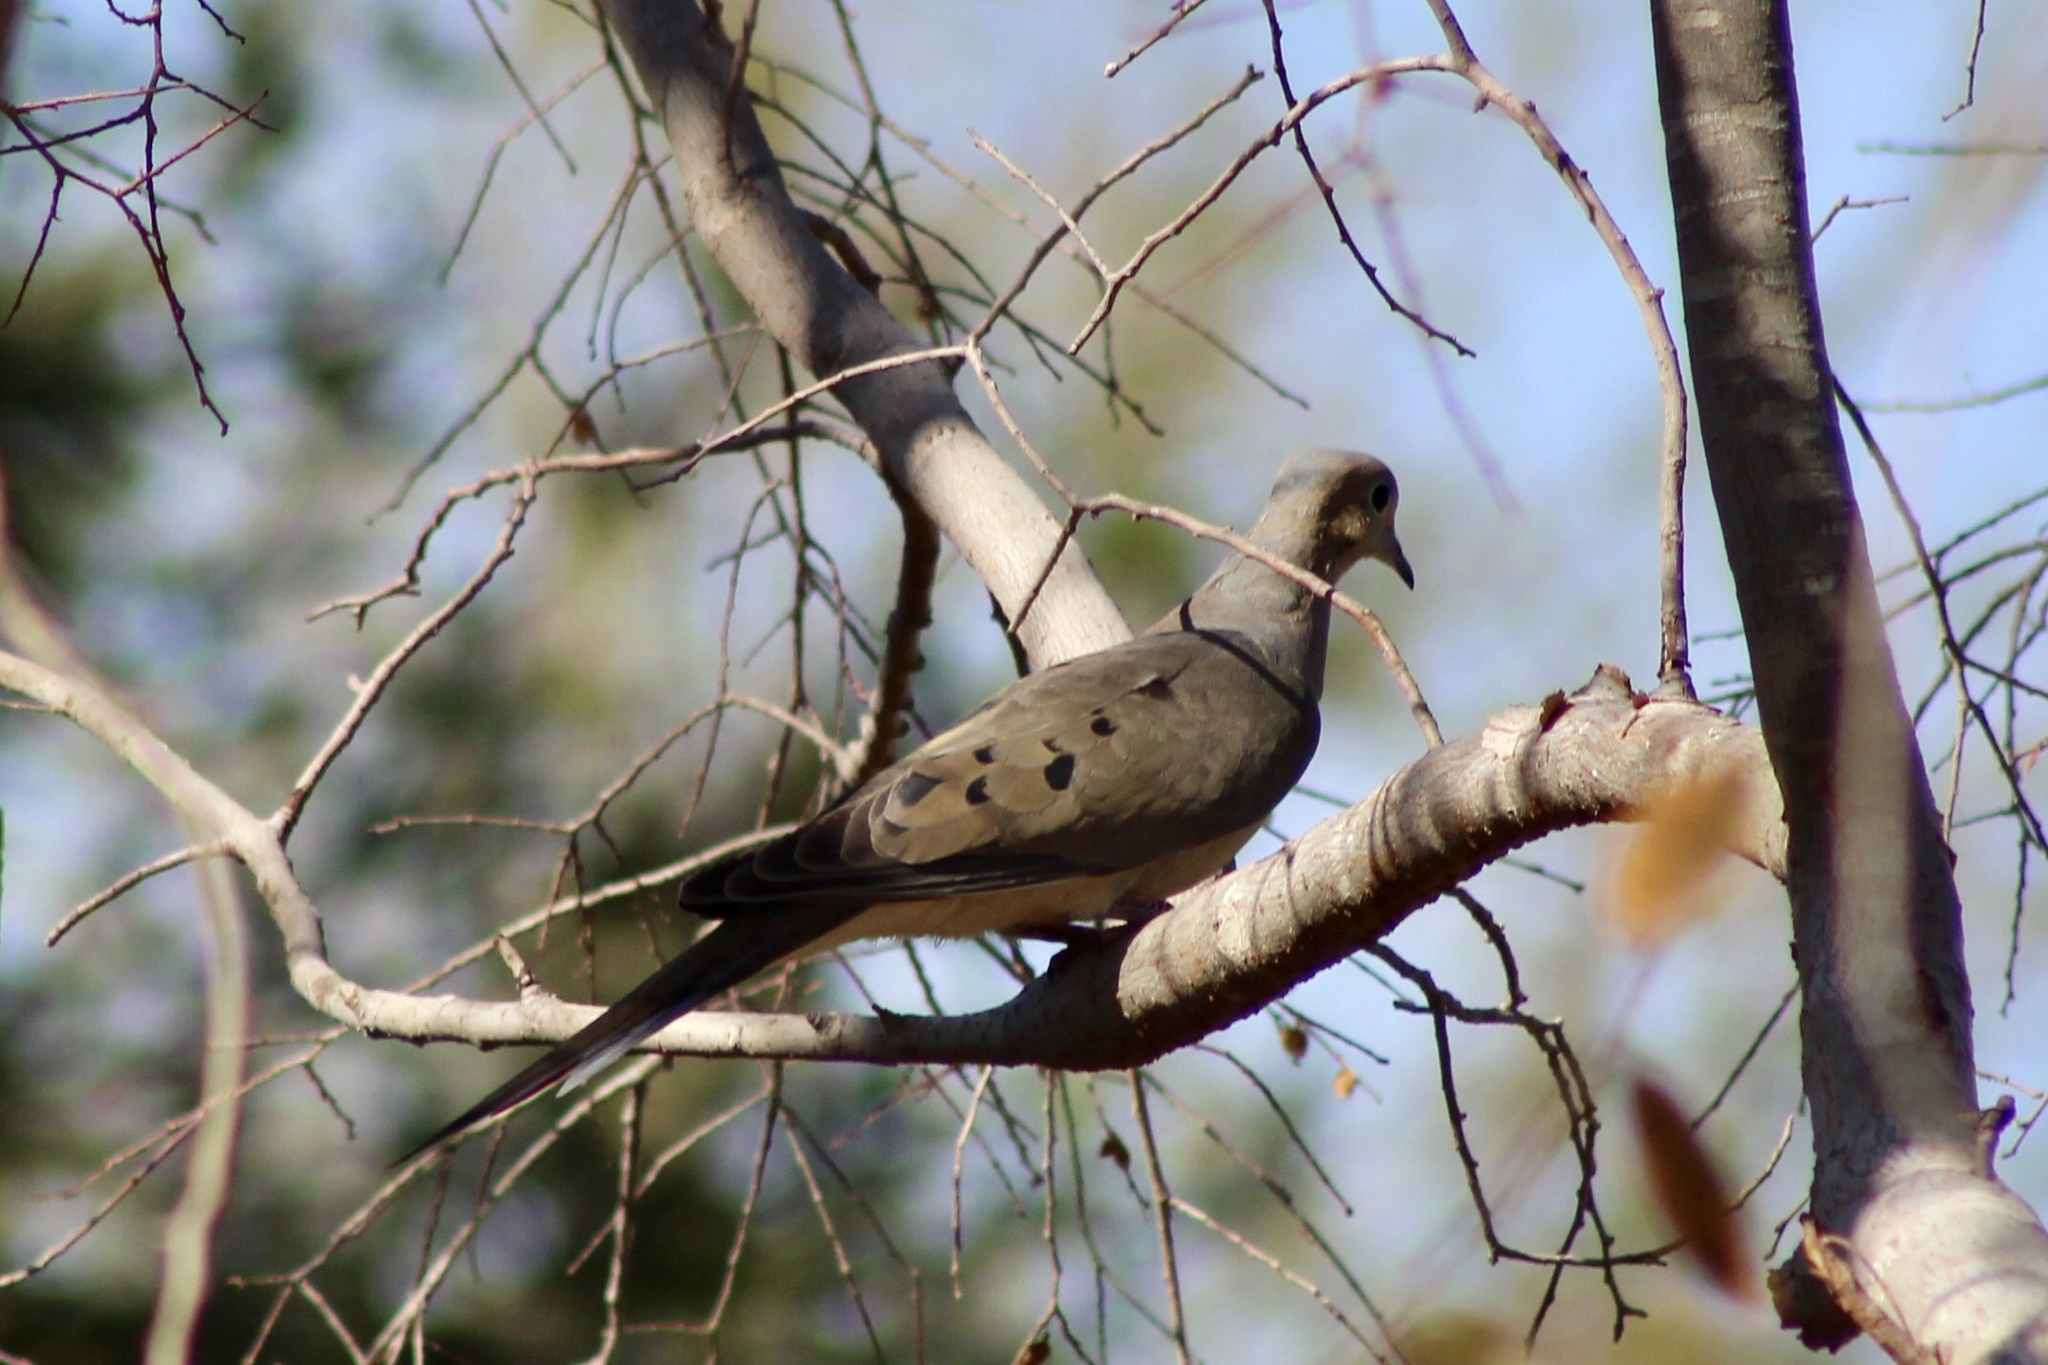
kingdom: Animalia
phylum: Chordata
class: Aves
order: Columbiformes
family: Columbidae
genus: Zenaida
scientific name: Zenaida macroura
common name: Mourning dove
